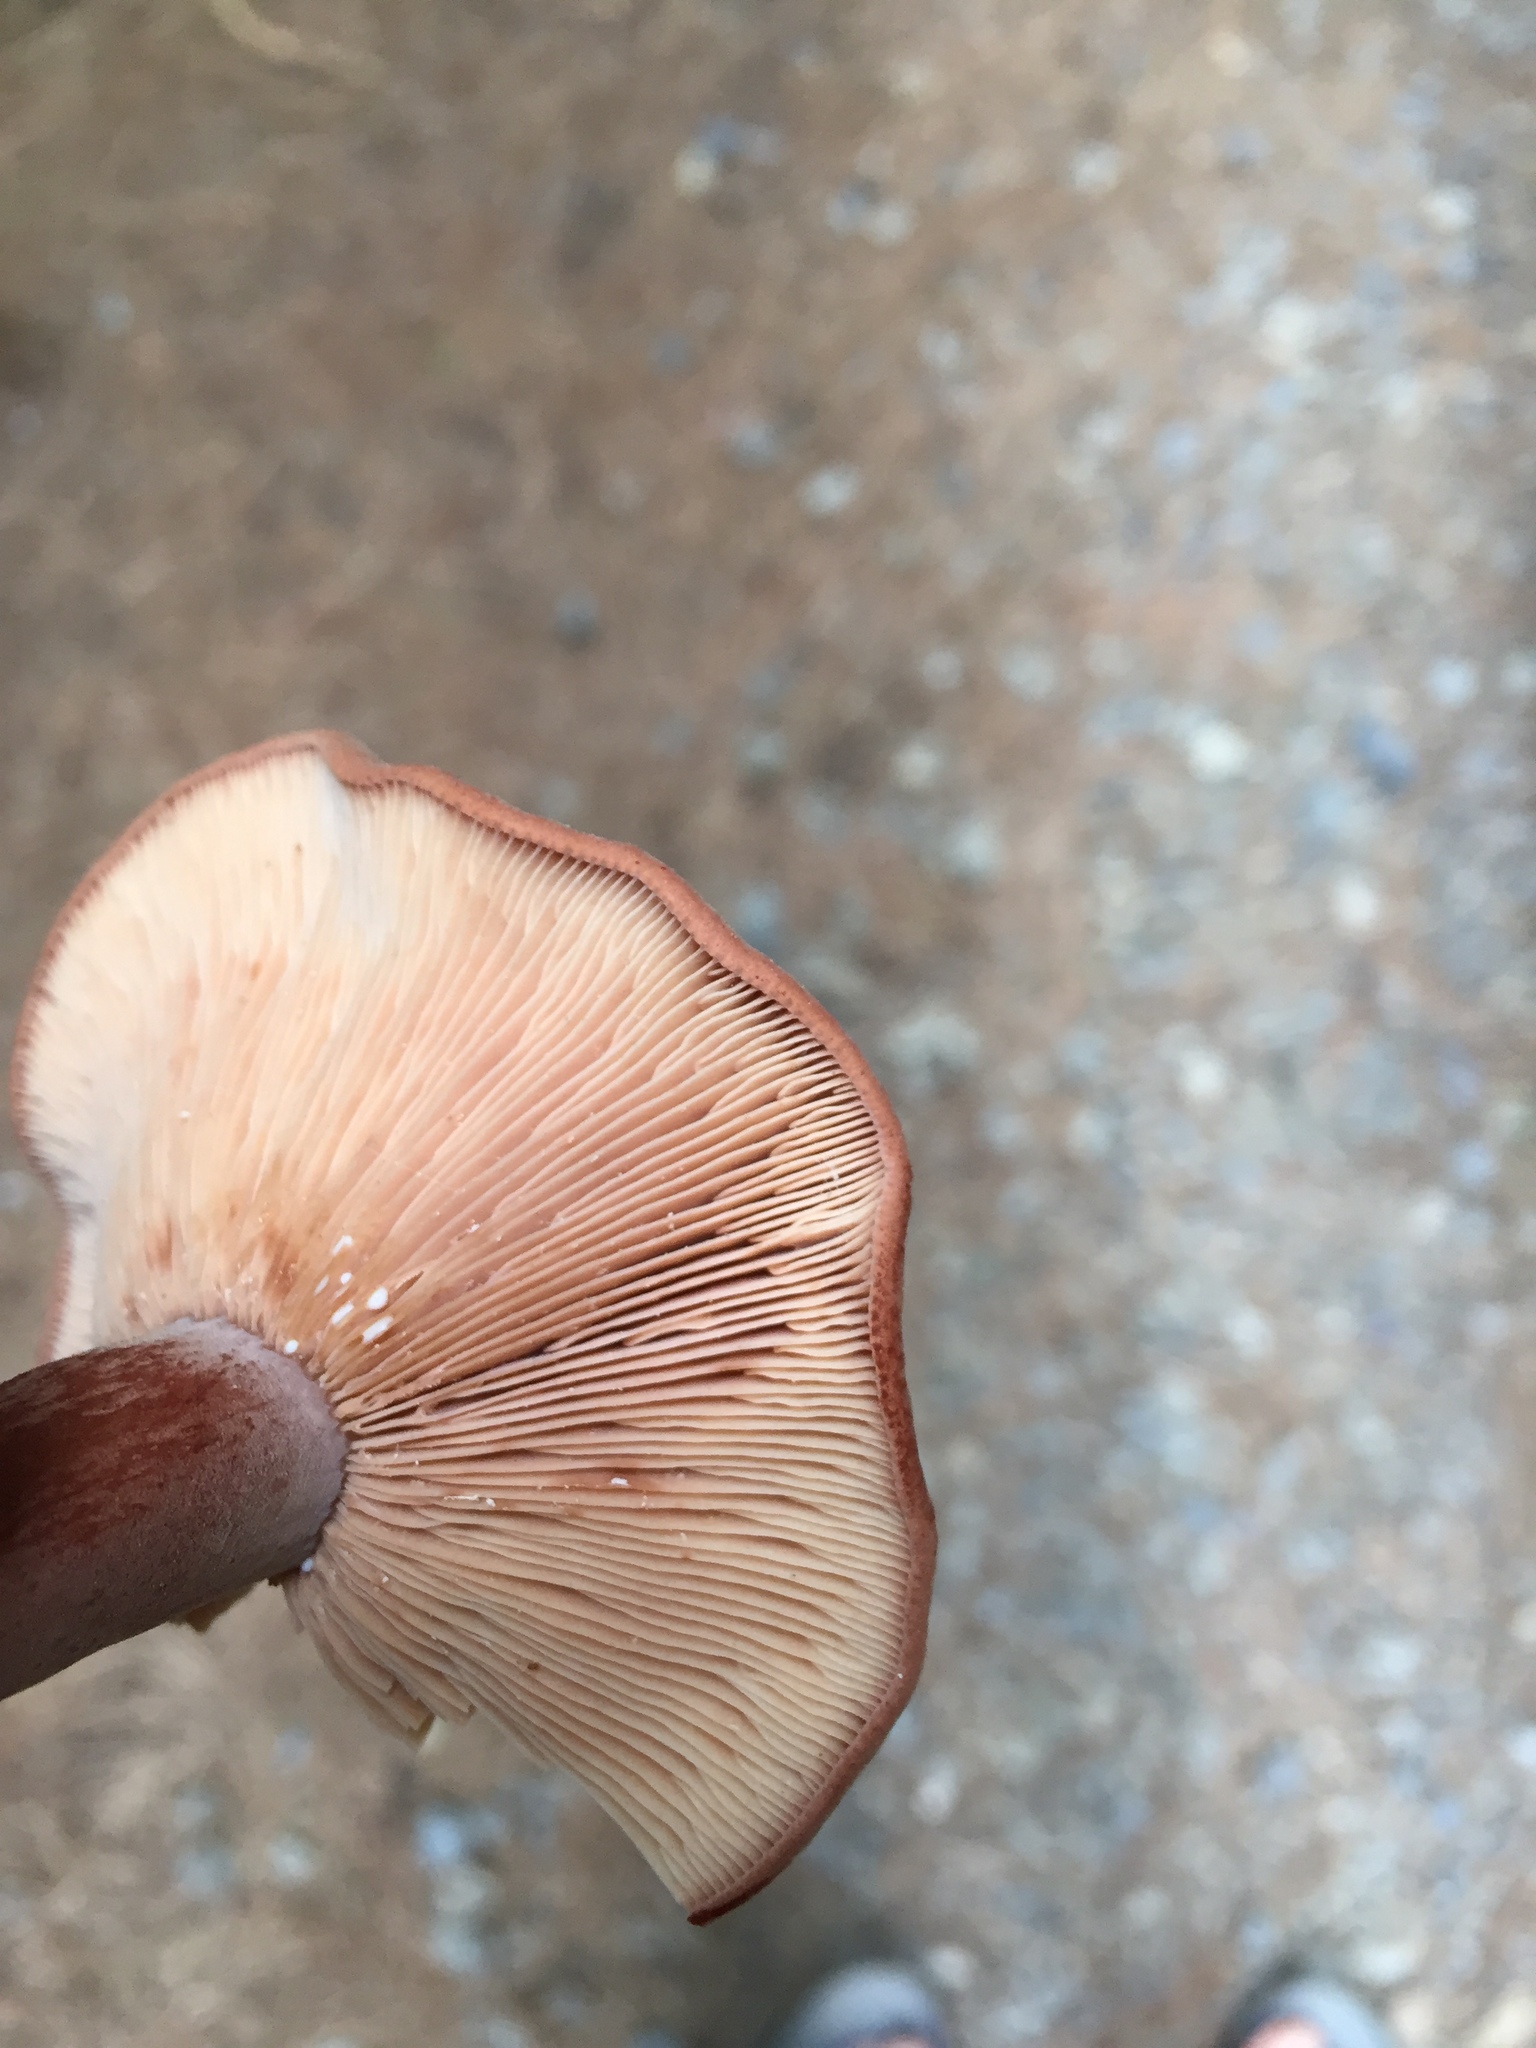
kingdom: Fungi
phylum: Basidiomycota
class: Agaricomycetes
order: Russulales
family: Russulaceae
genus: Lactarius
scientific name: Lactarius rufus
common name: Rufous milk-cap
